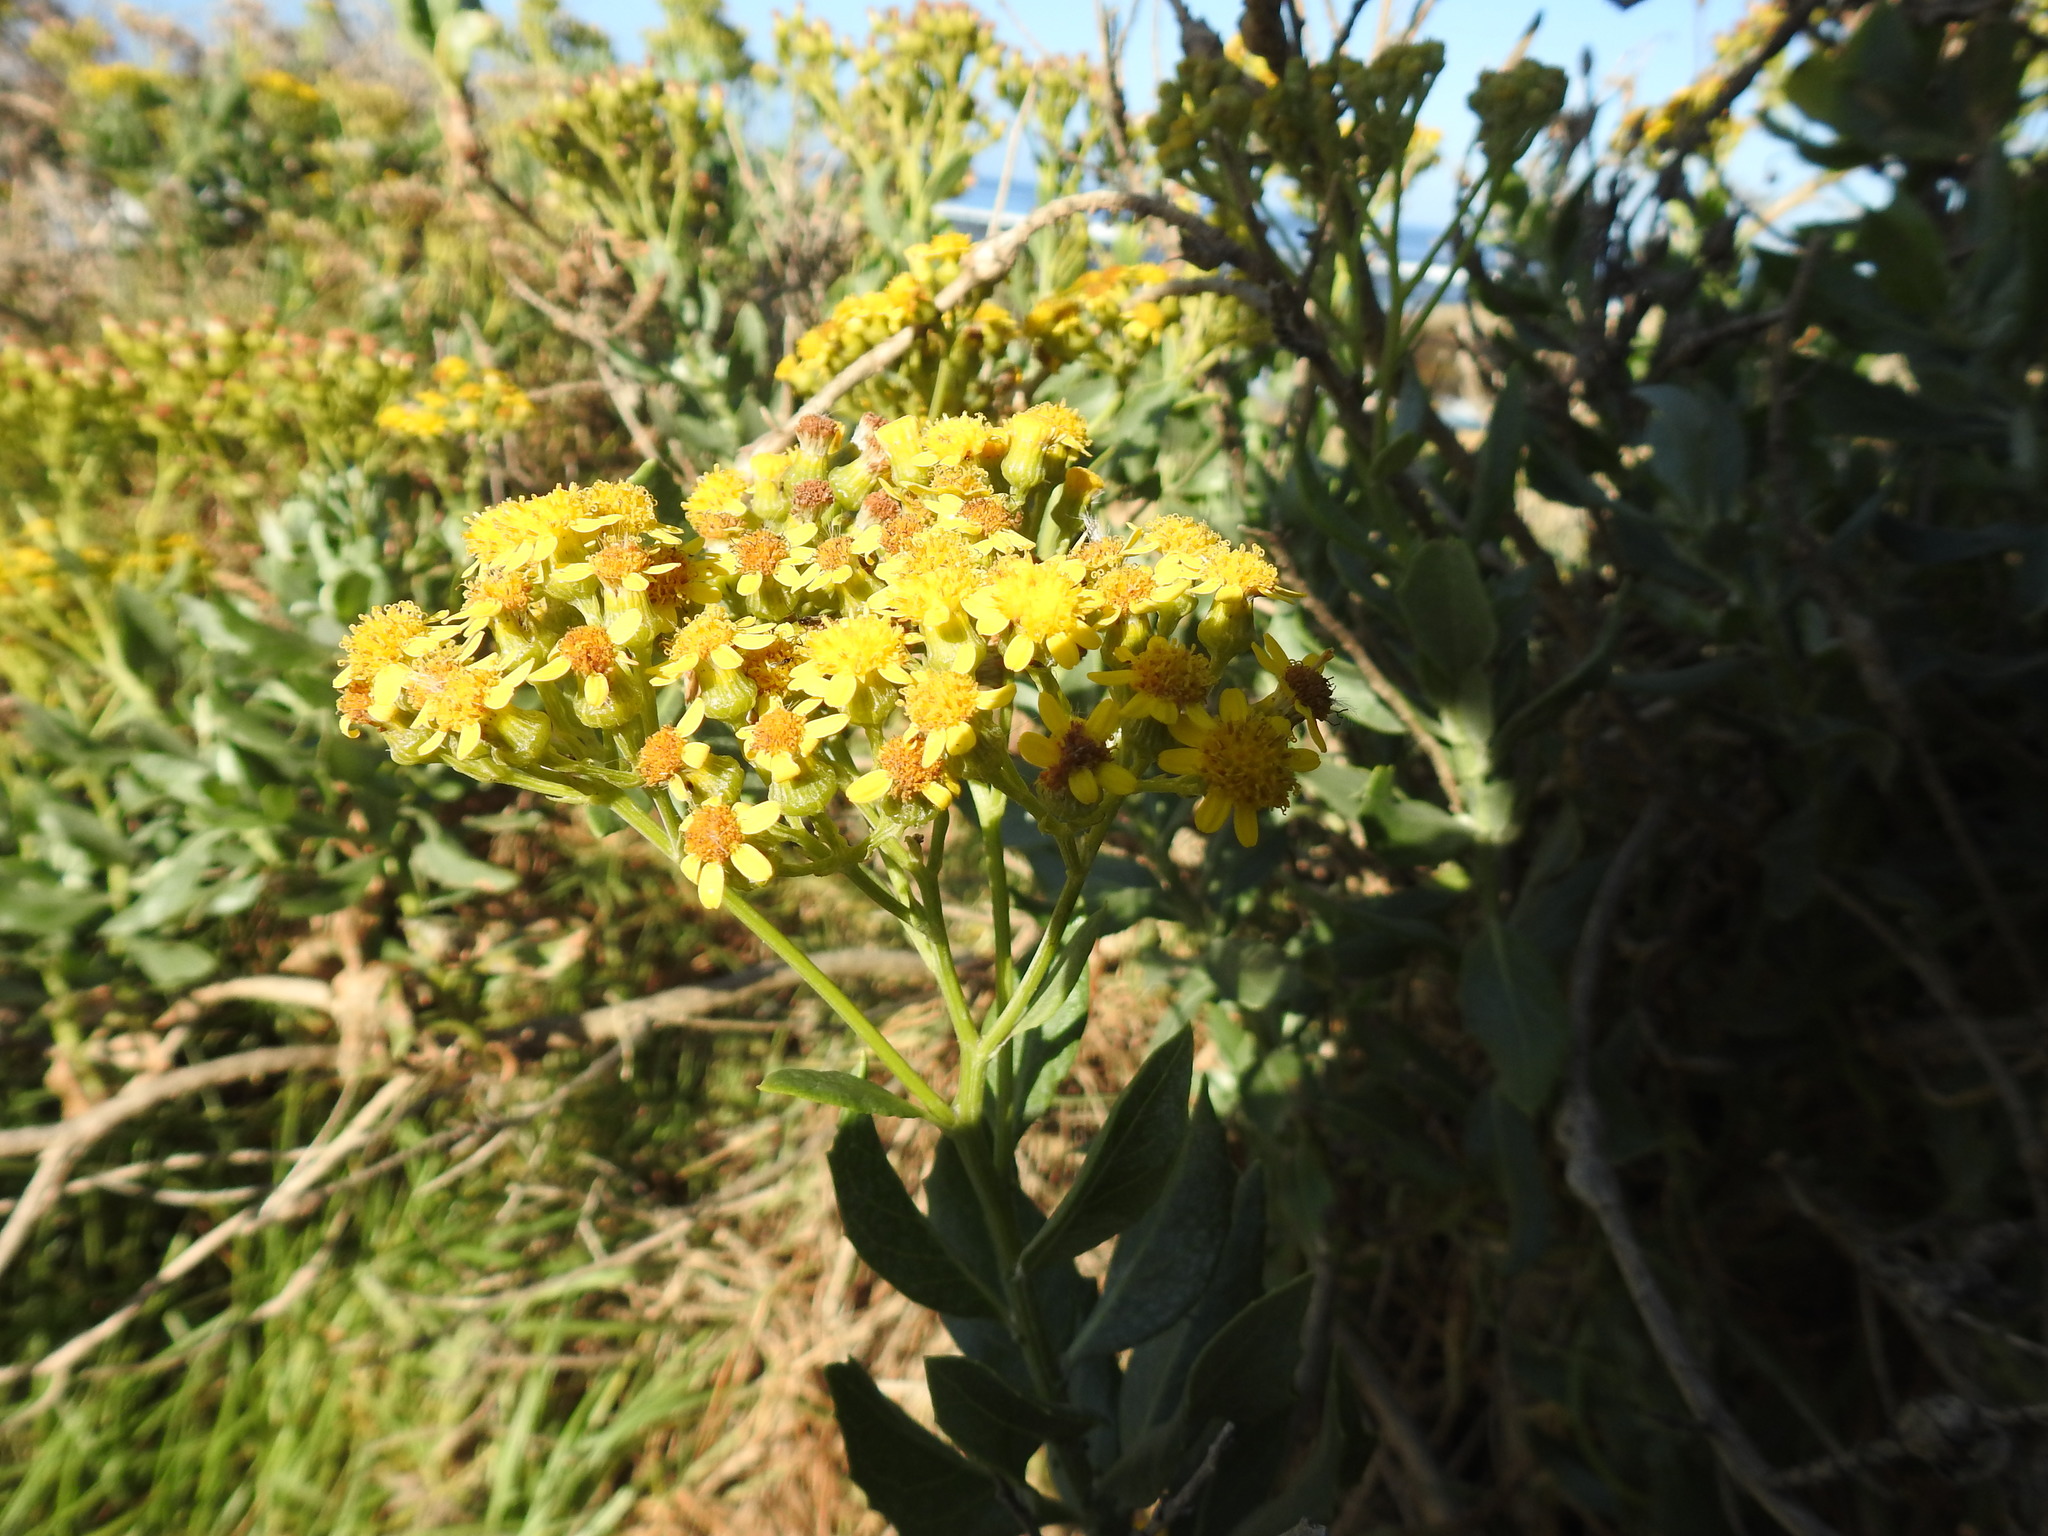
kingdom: Plantae
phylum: Tracheophyta
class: Magnoliopsida
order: Asterales
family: Asteraceae
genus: Senecio
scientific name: Senecio halimifolius
